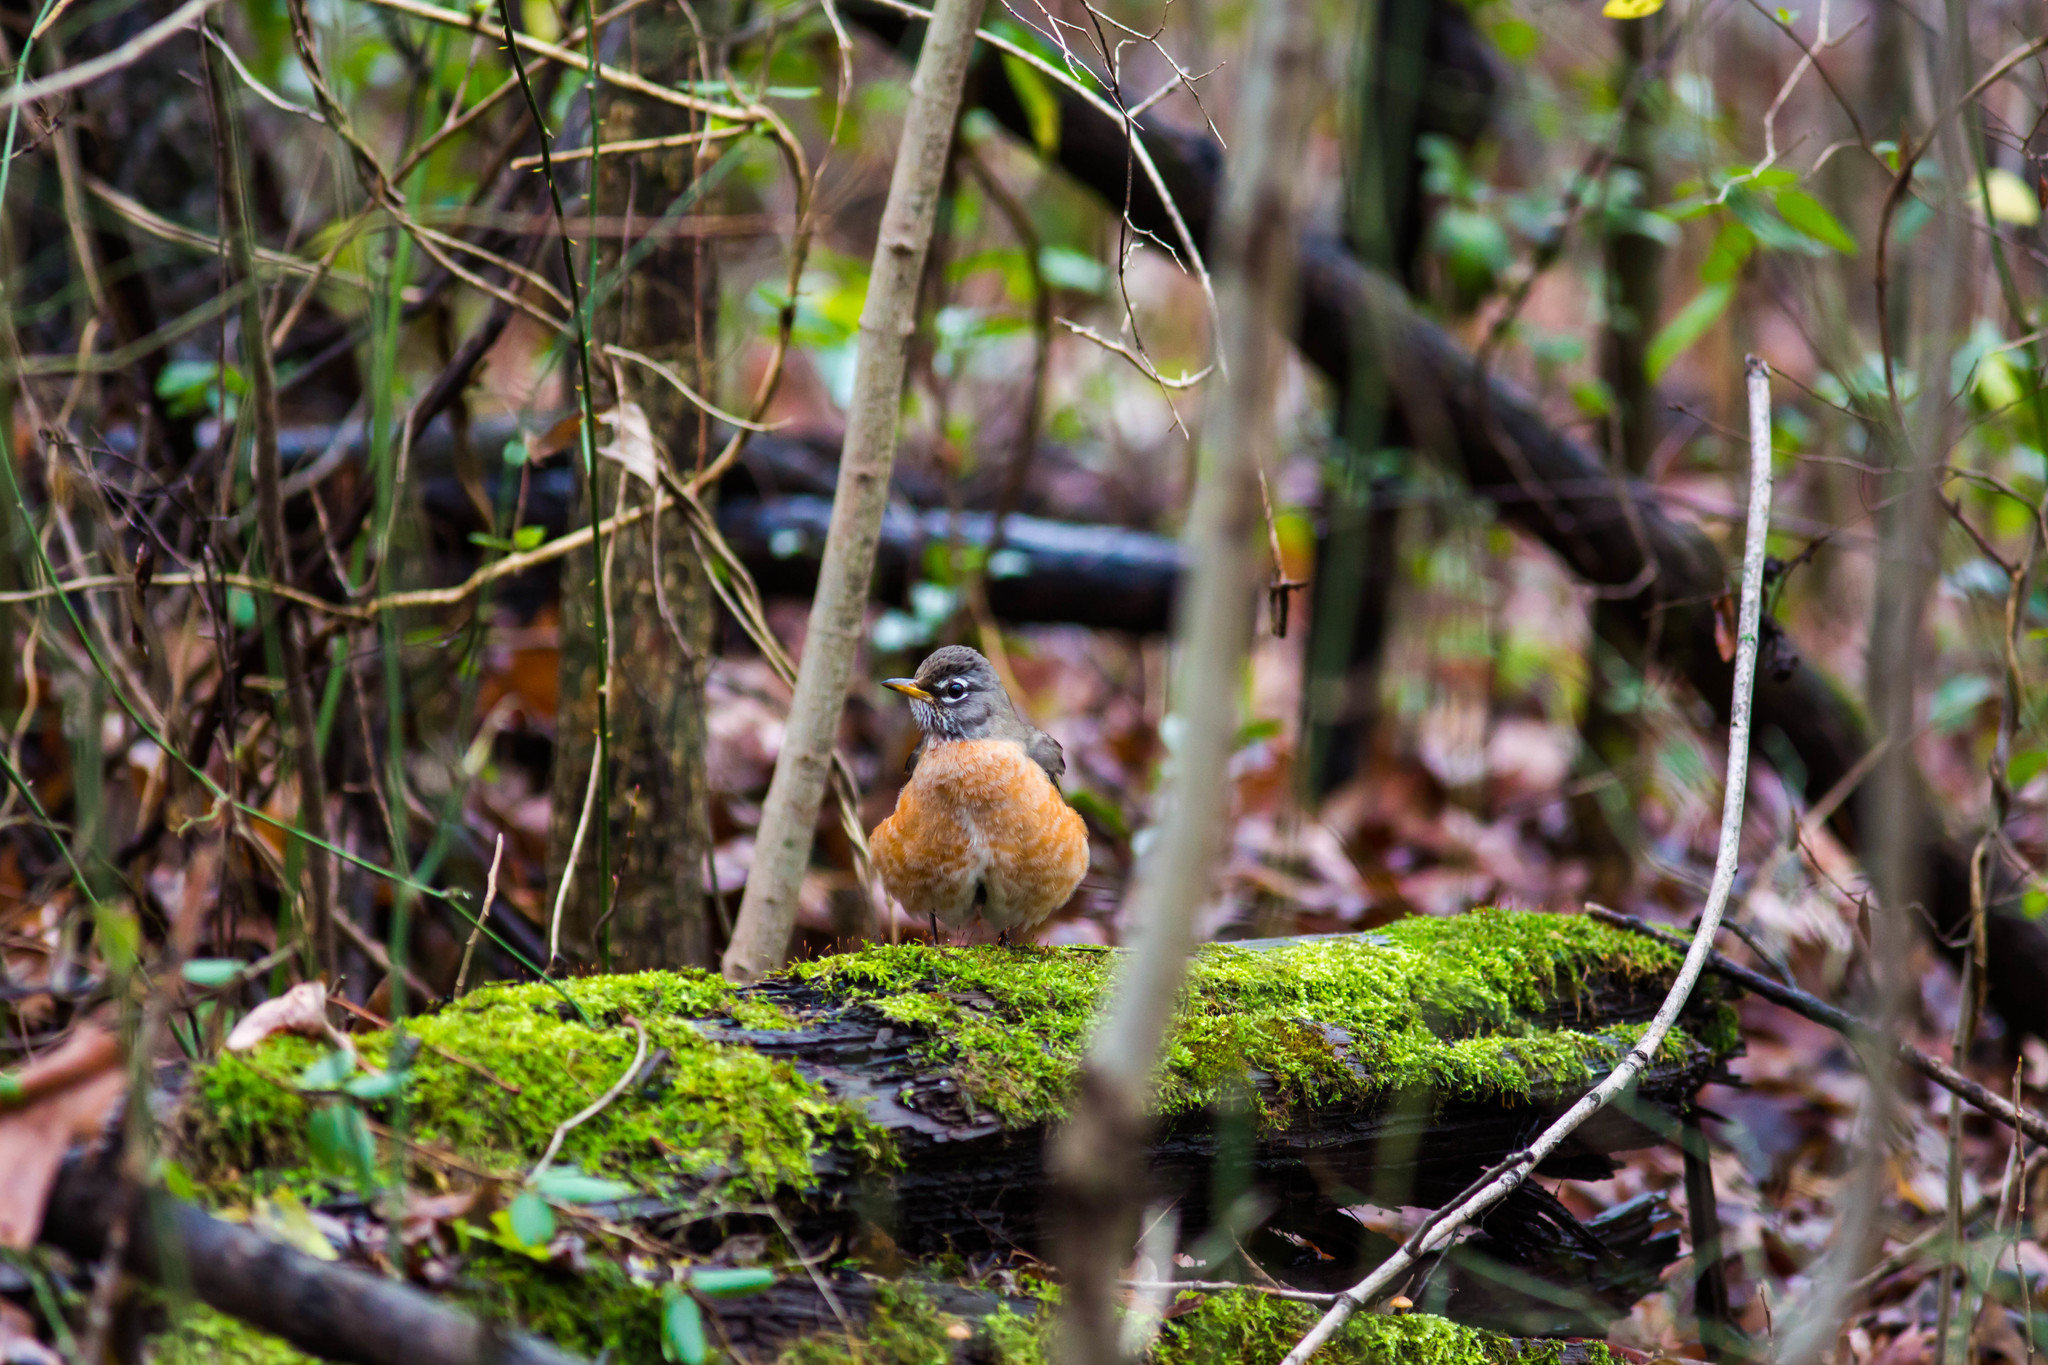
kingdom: Animalia
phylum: Chordata
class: Aves
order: Passeriformes
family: Turdidae
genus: Turdus
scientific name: Turdus migratorius
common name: American robin
